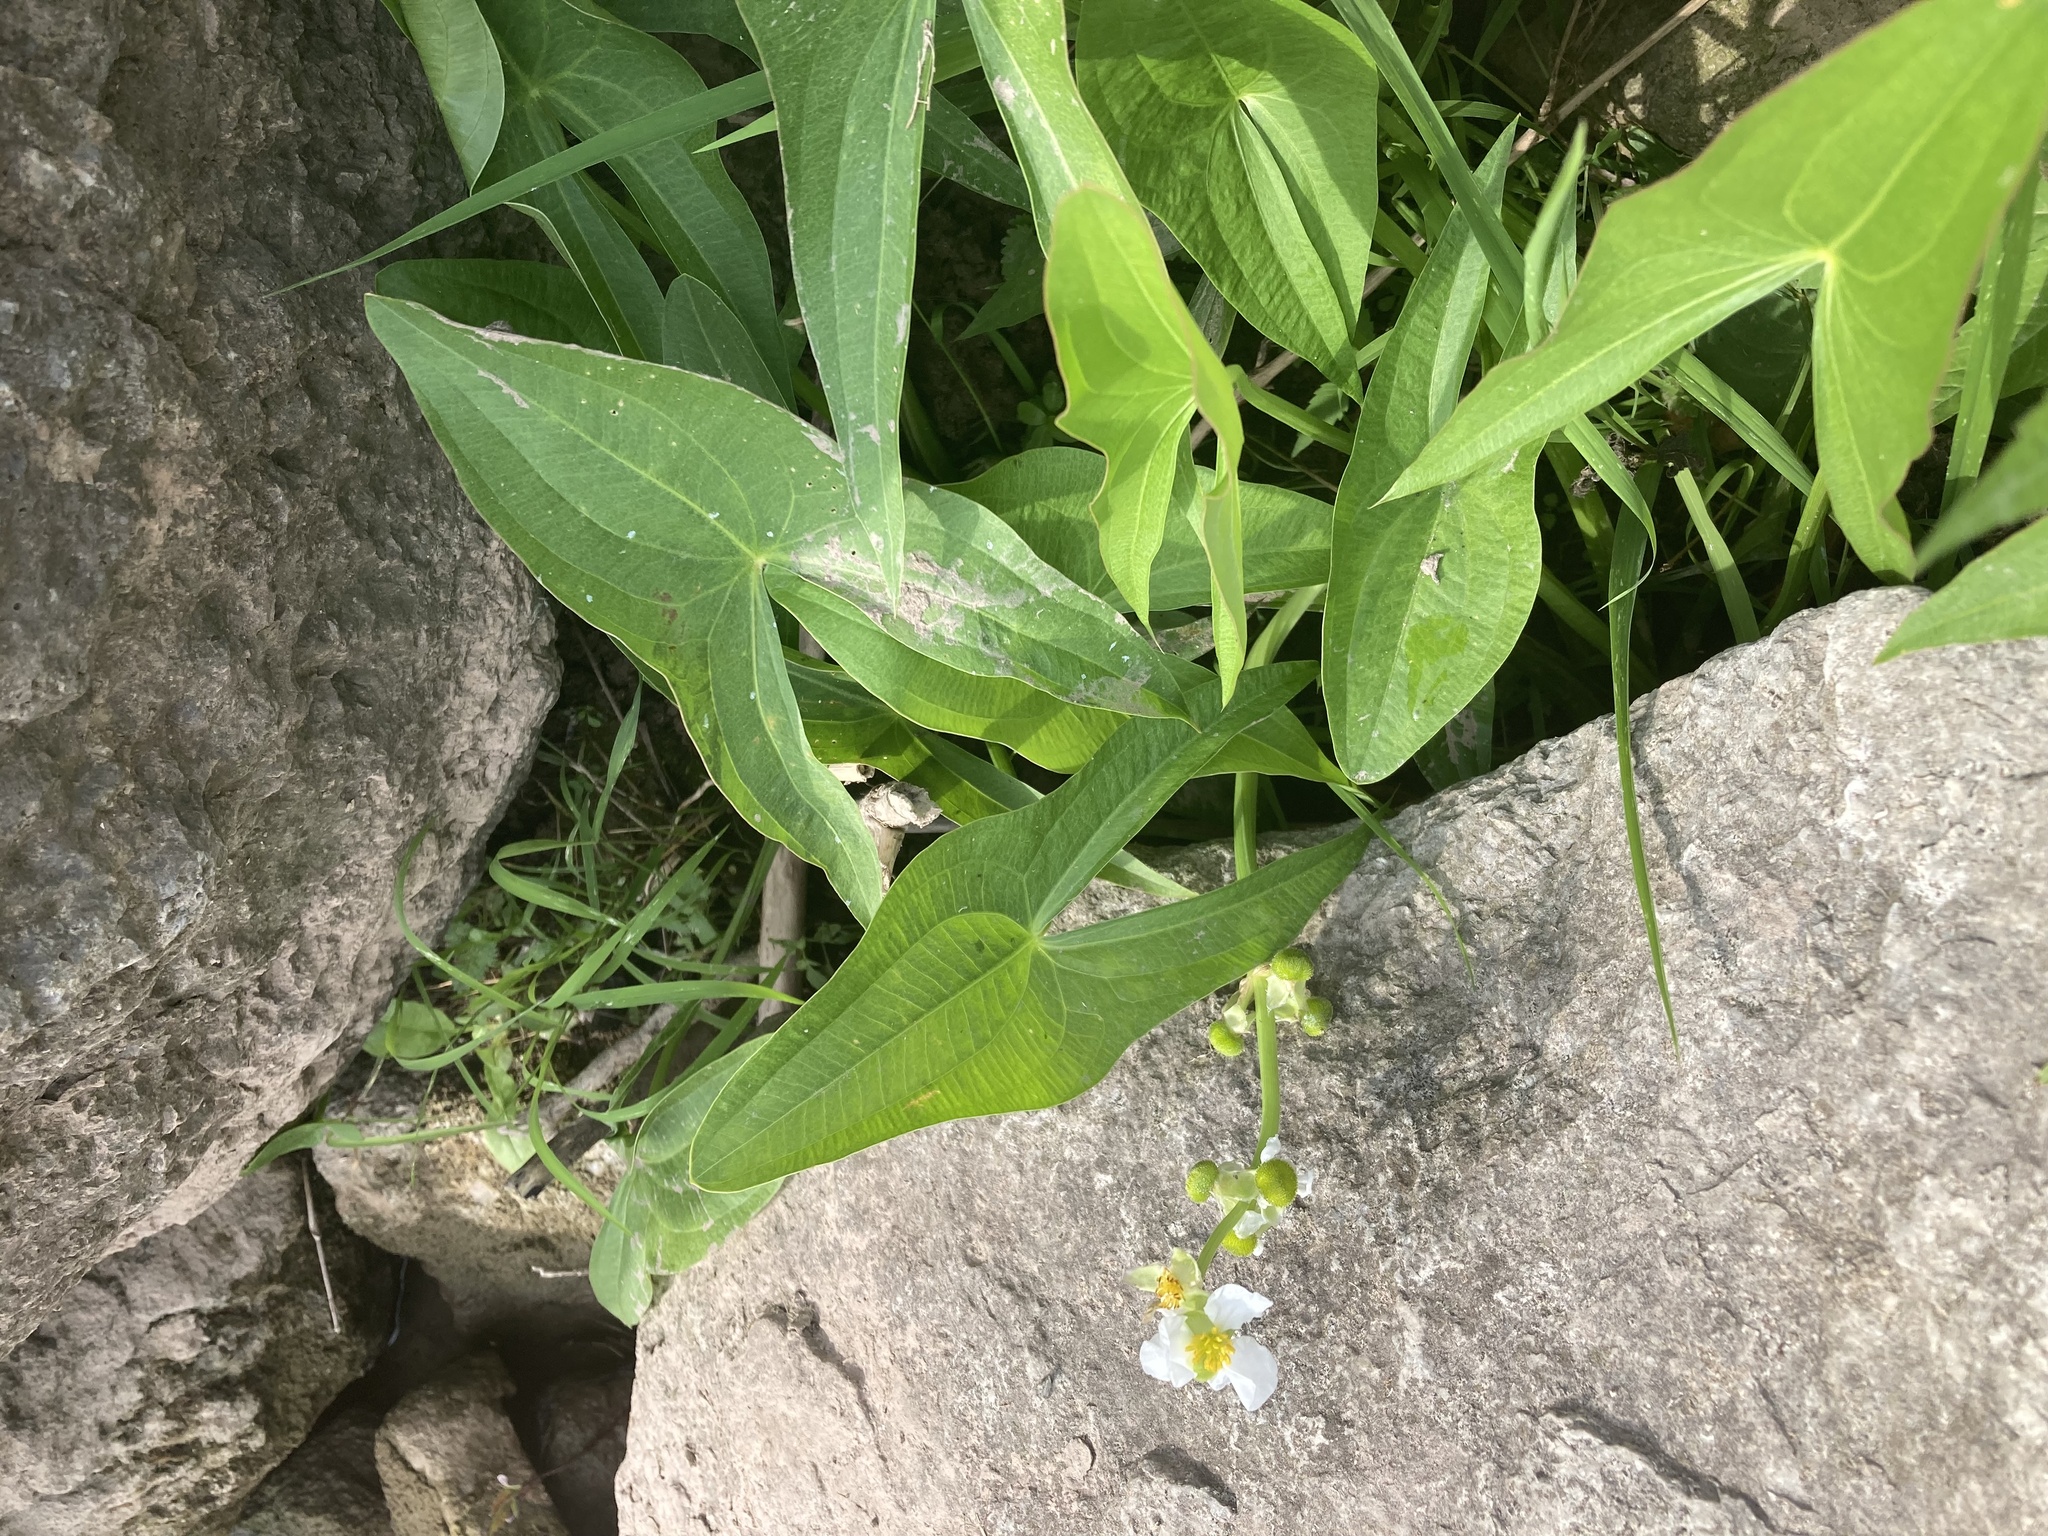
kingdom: Plantae
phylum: Tracheophyta
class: Liliopsida
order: Alismatales
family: Alismataceae
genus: Sagittaria
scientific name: Sagittaria latifolia
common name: Duck-potato
